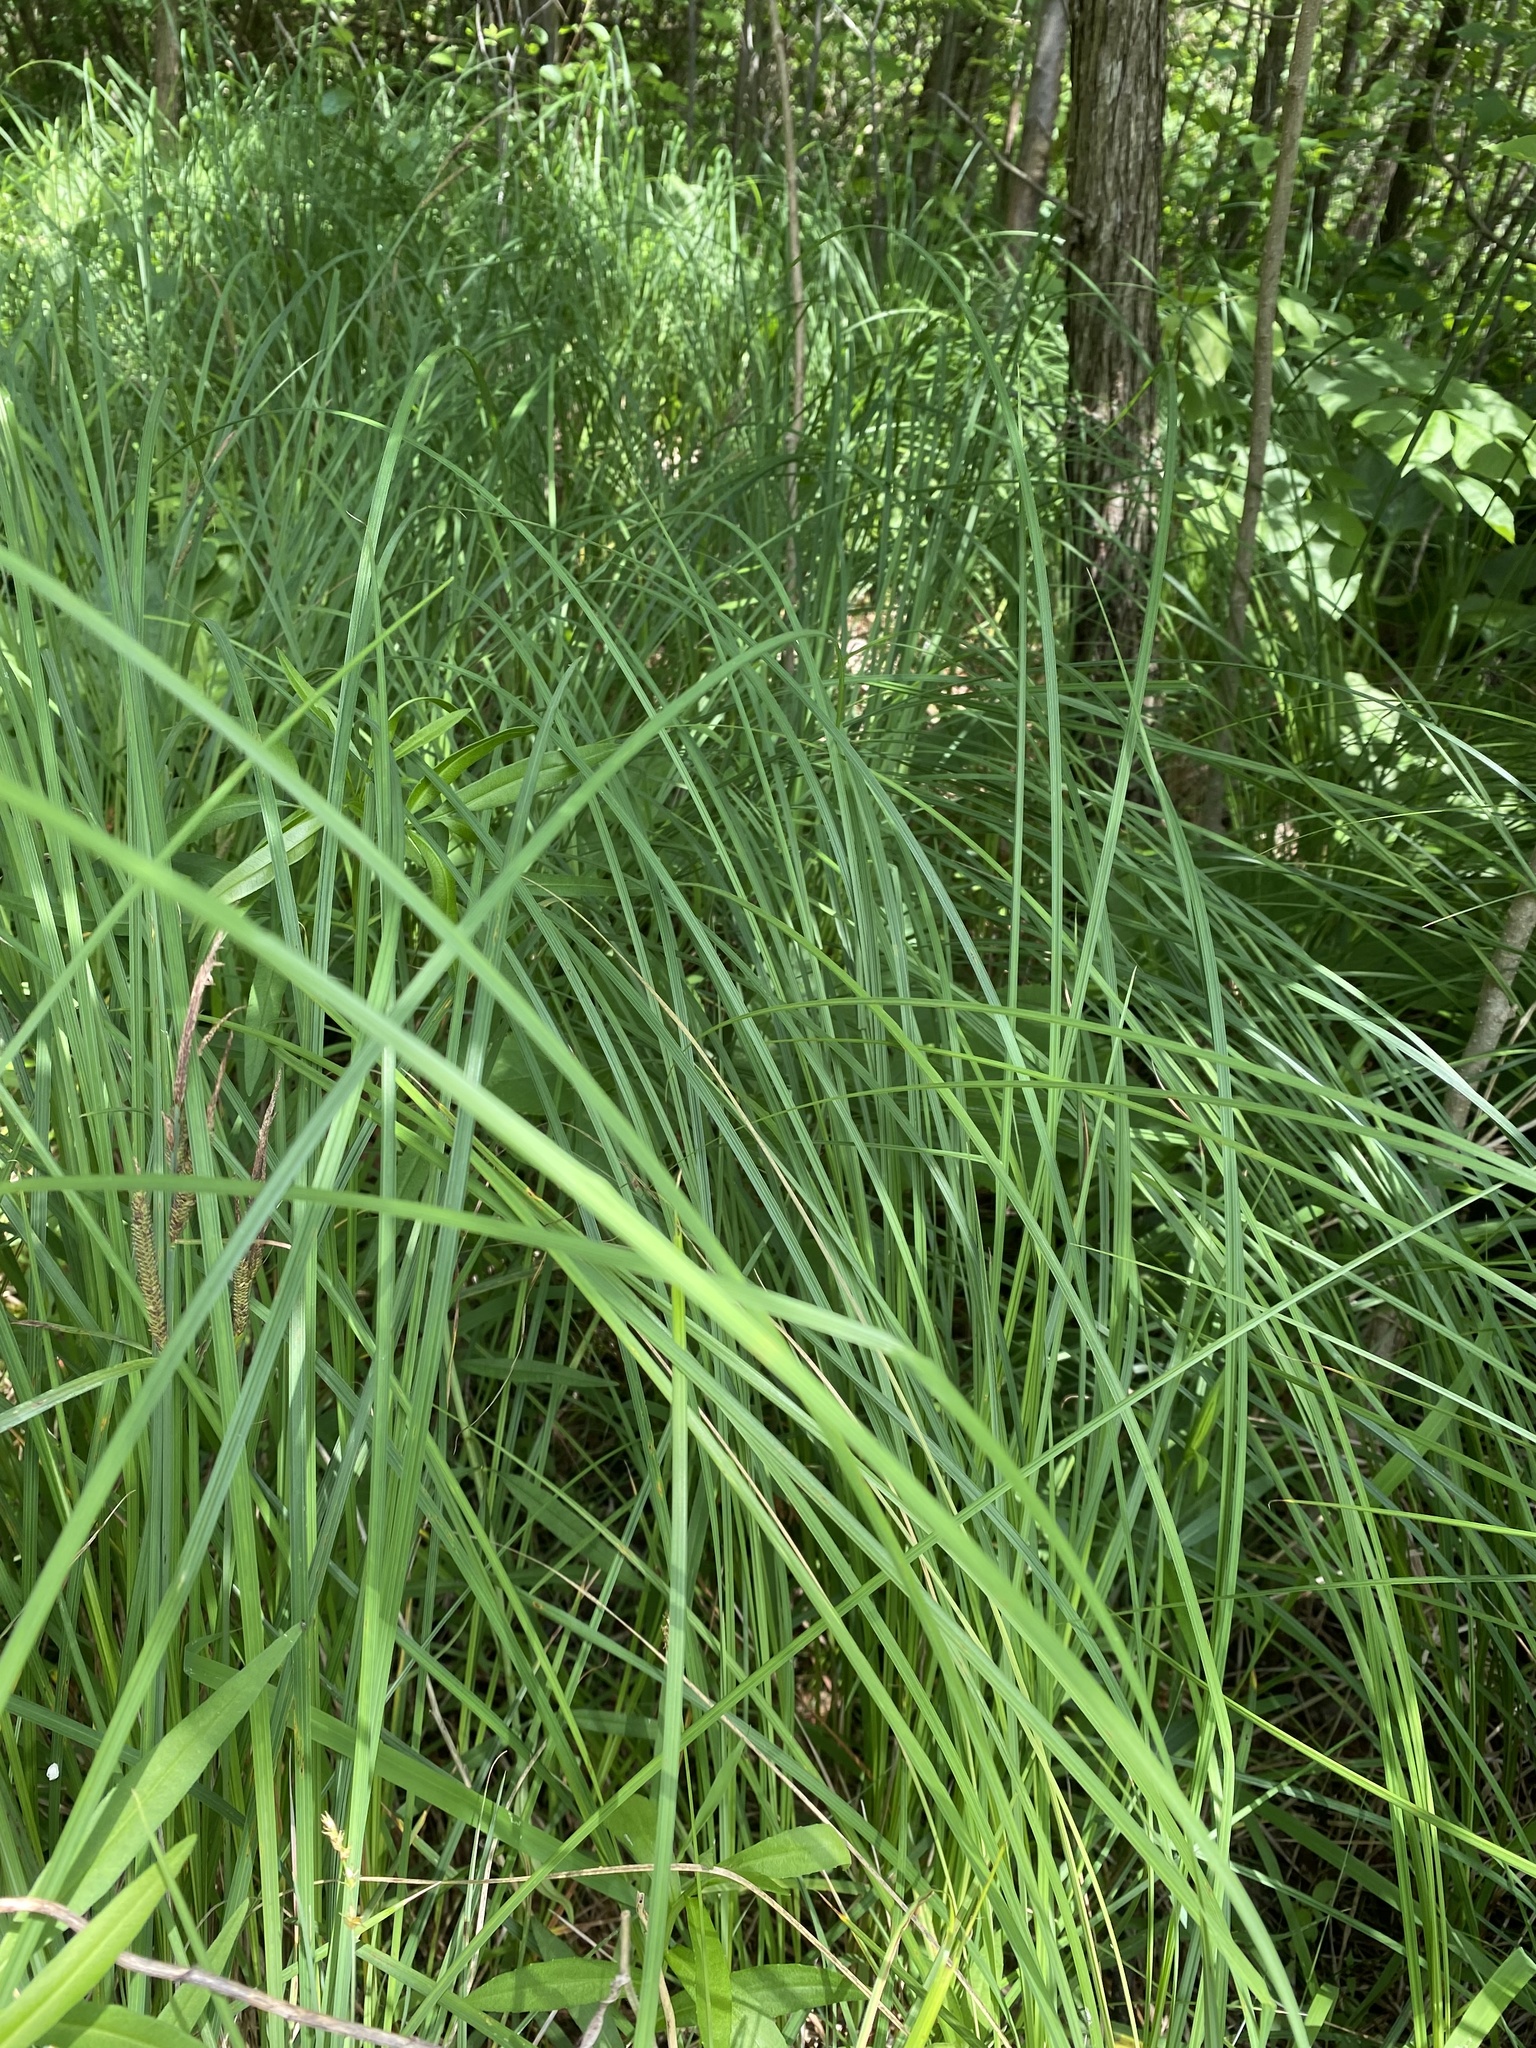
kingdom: Plantae
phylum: Tracheophyta
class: Liliopsida
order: Poales
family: Cyperaceae
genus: Carex
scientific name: Carex stricta
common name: Hummock sedge
